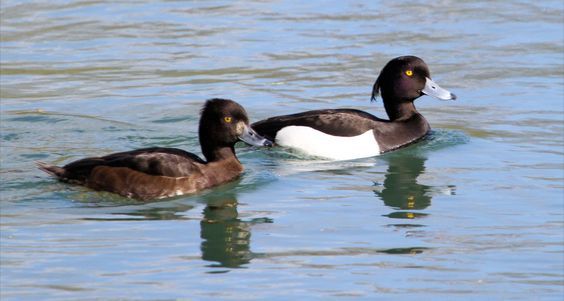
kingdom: Animalia
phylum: Chordata
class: Aves
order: Anseriformes
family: Anatidae
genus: Aythya
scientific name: Aythya fuligula
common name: Tufted duck
